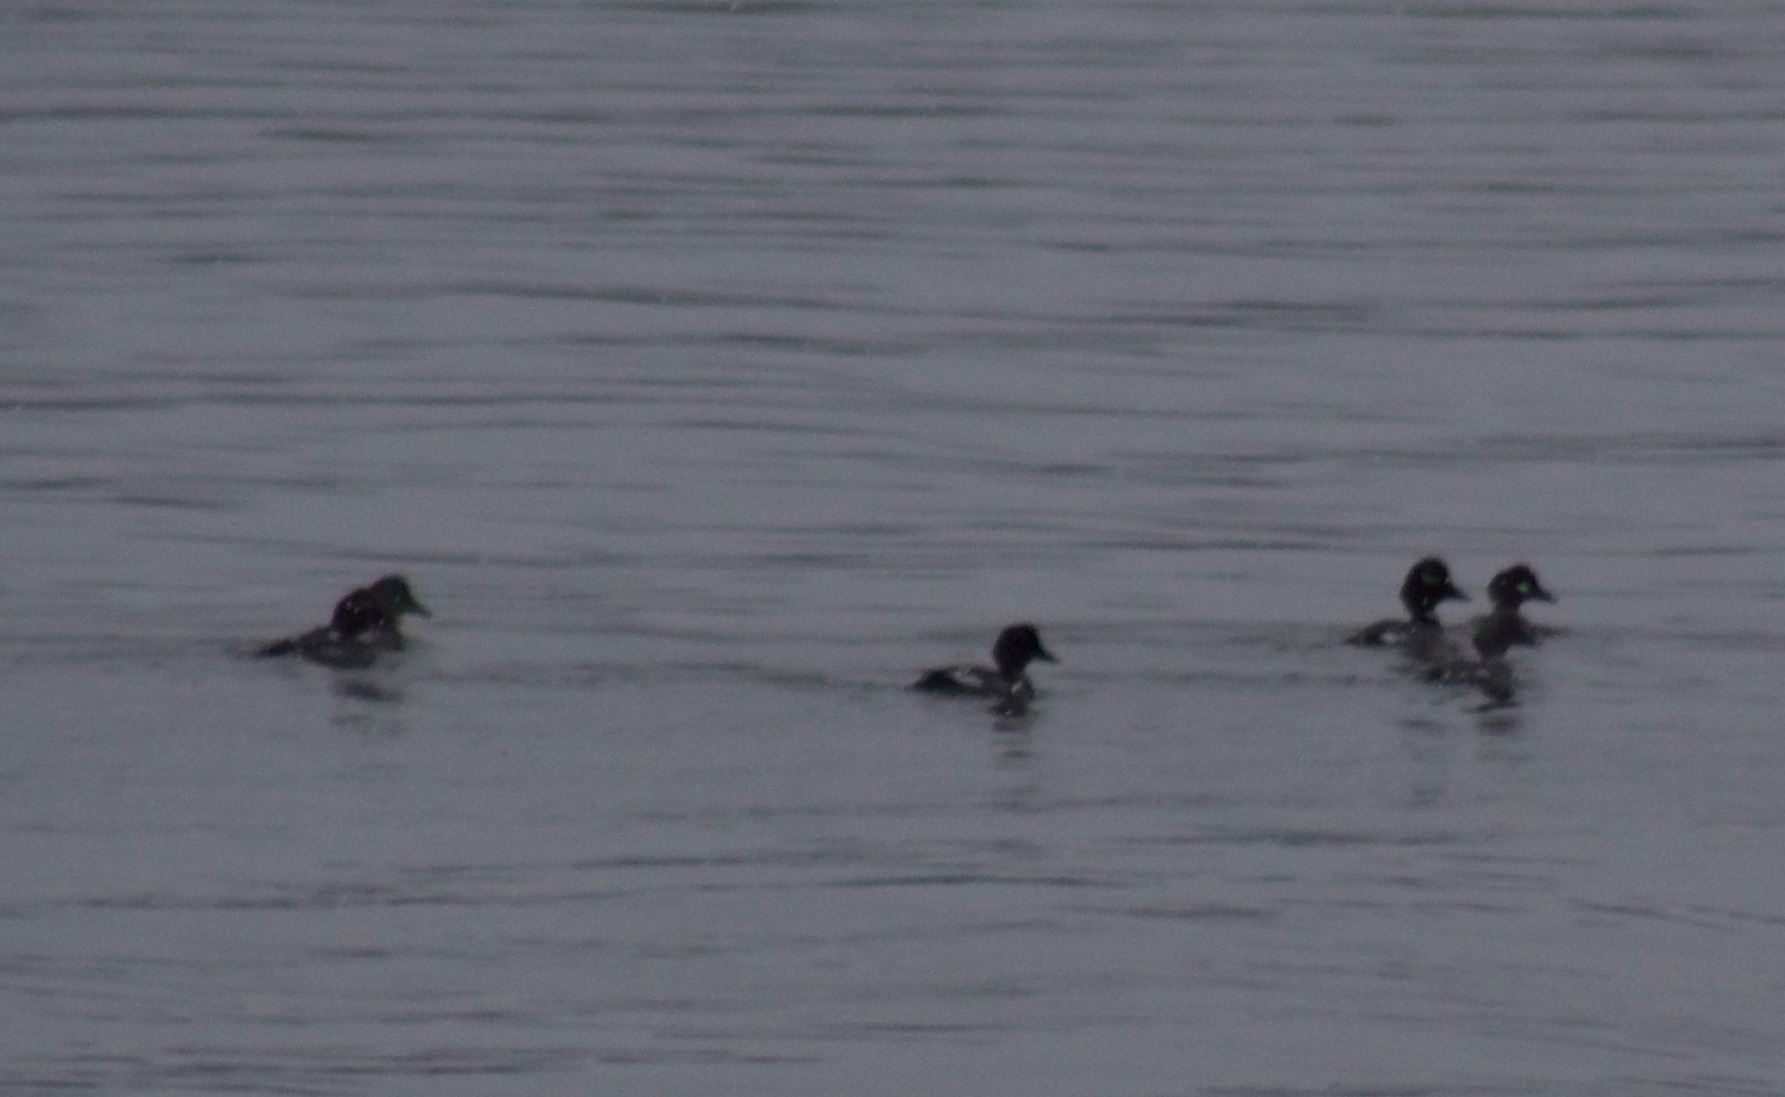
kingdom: Animalia
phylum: Chordata
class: Aves
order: Anseriformes
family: Anatidae
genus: Bucephala
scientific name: Bucephala clangula
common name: Common goldeneye
